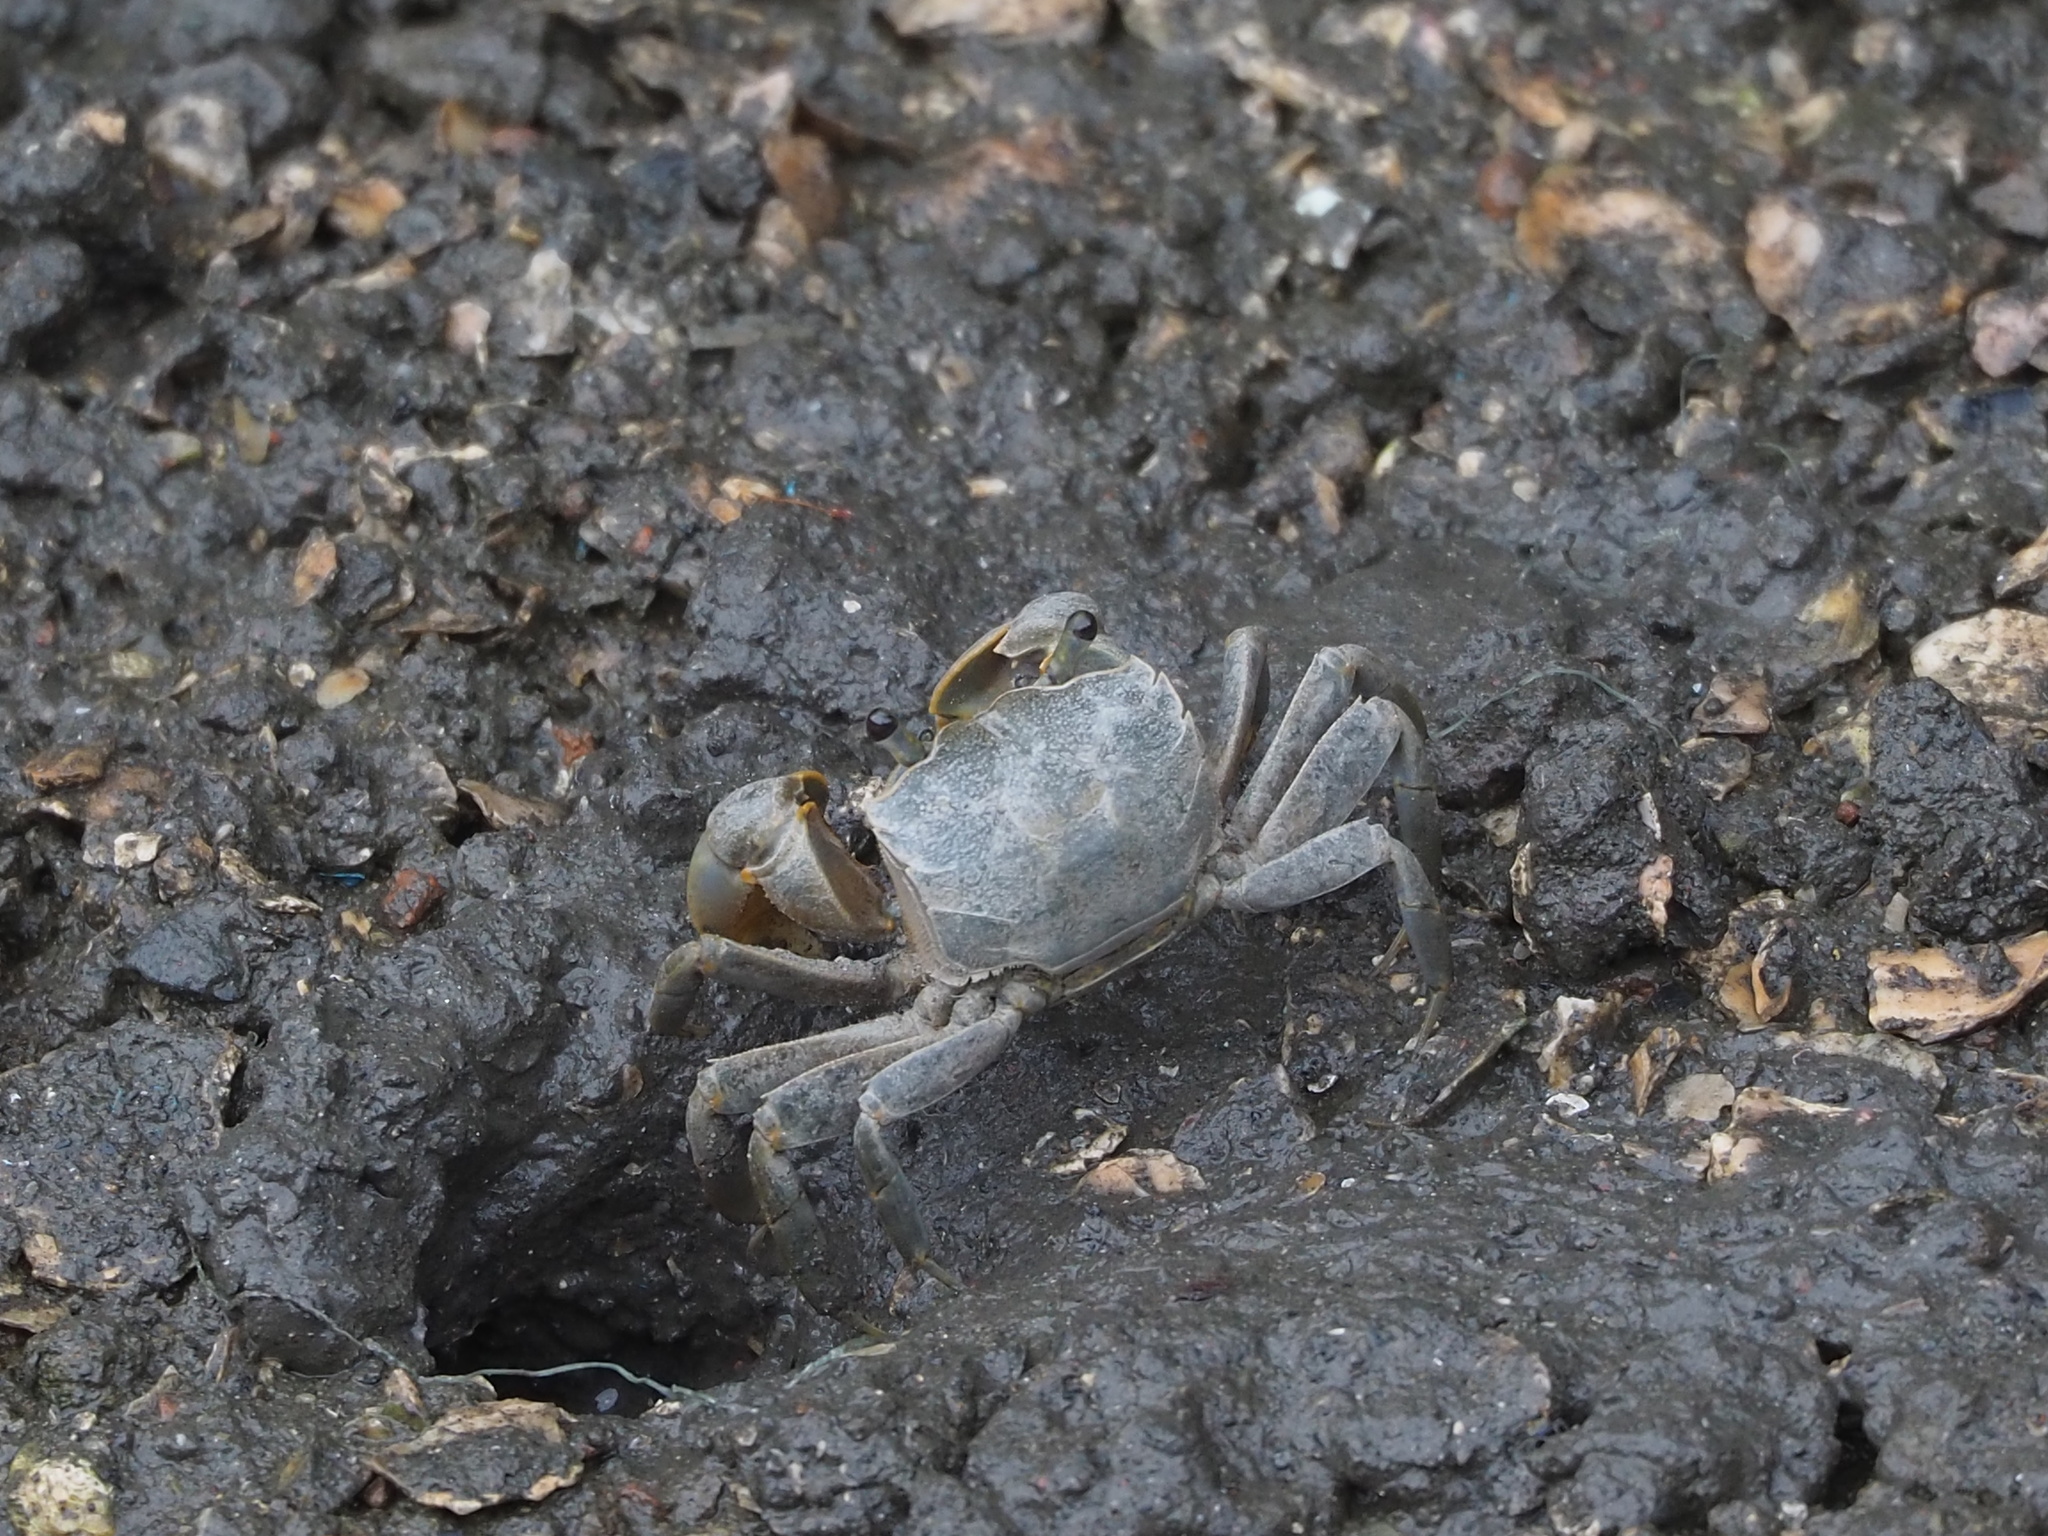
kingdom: Animalia
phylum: Arthropoda
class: Malacostraca
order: Decapoda
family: Varunidae
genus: Helice
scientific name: Helice formosensis
